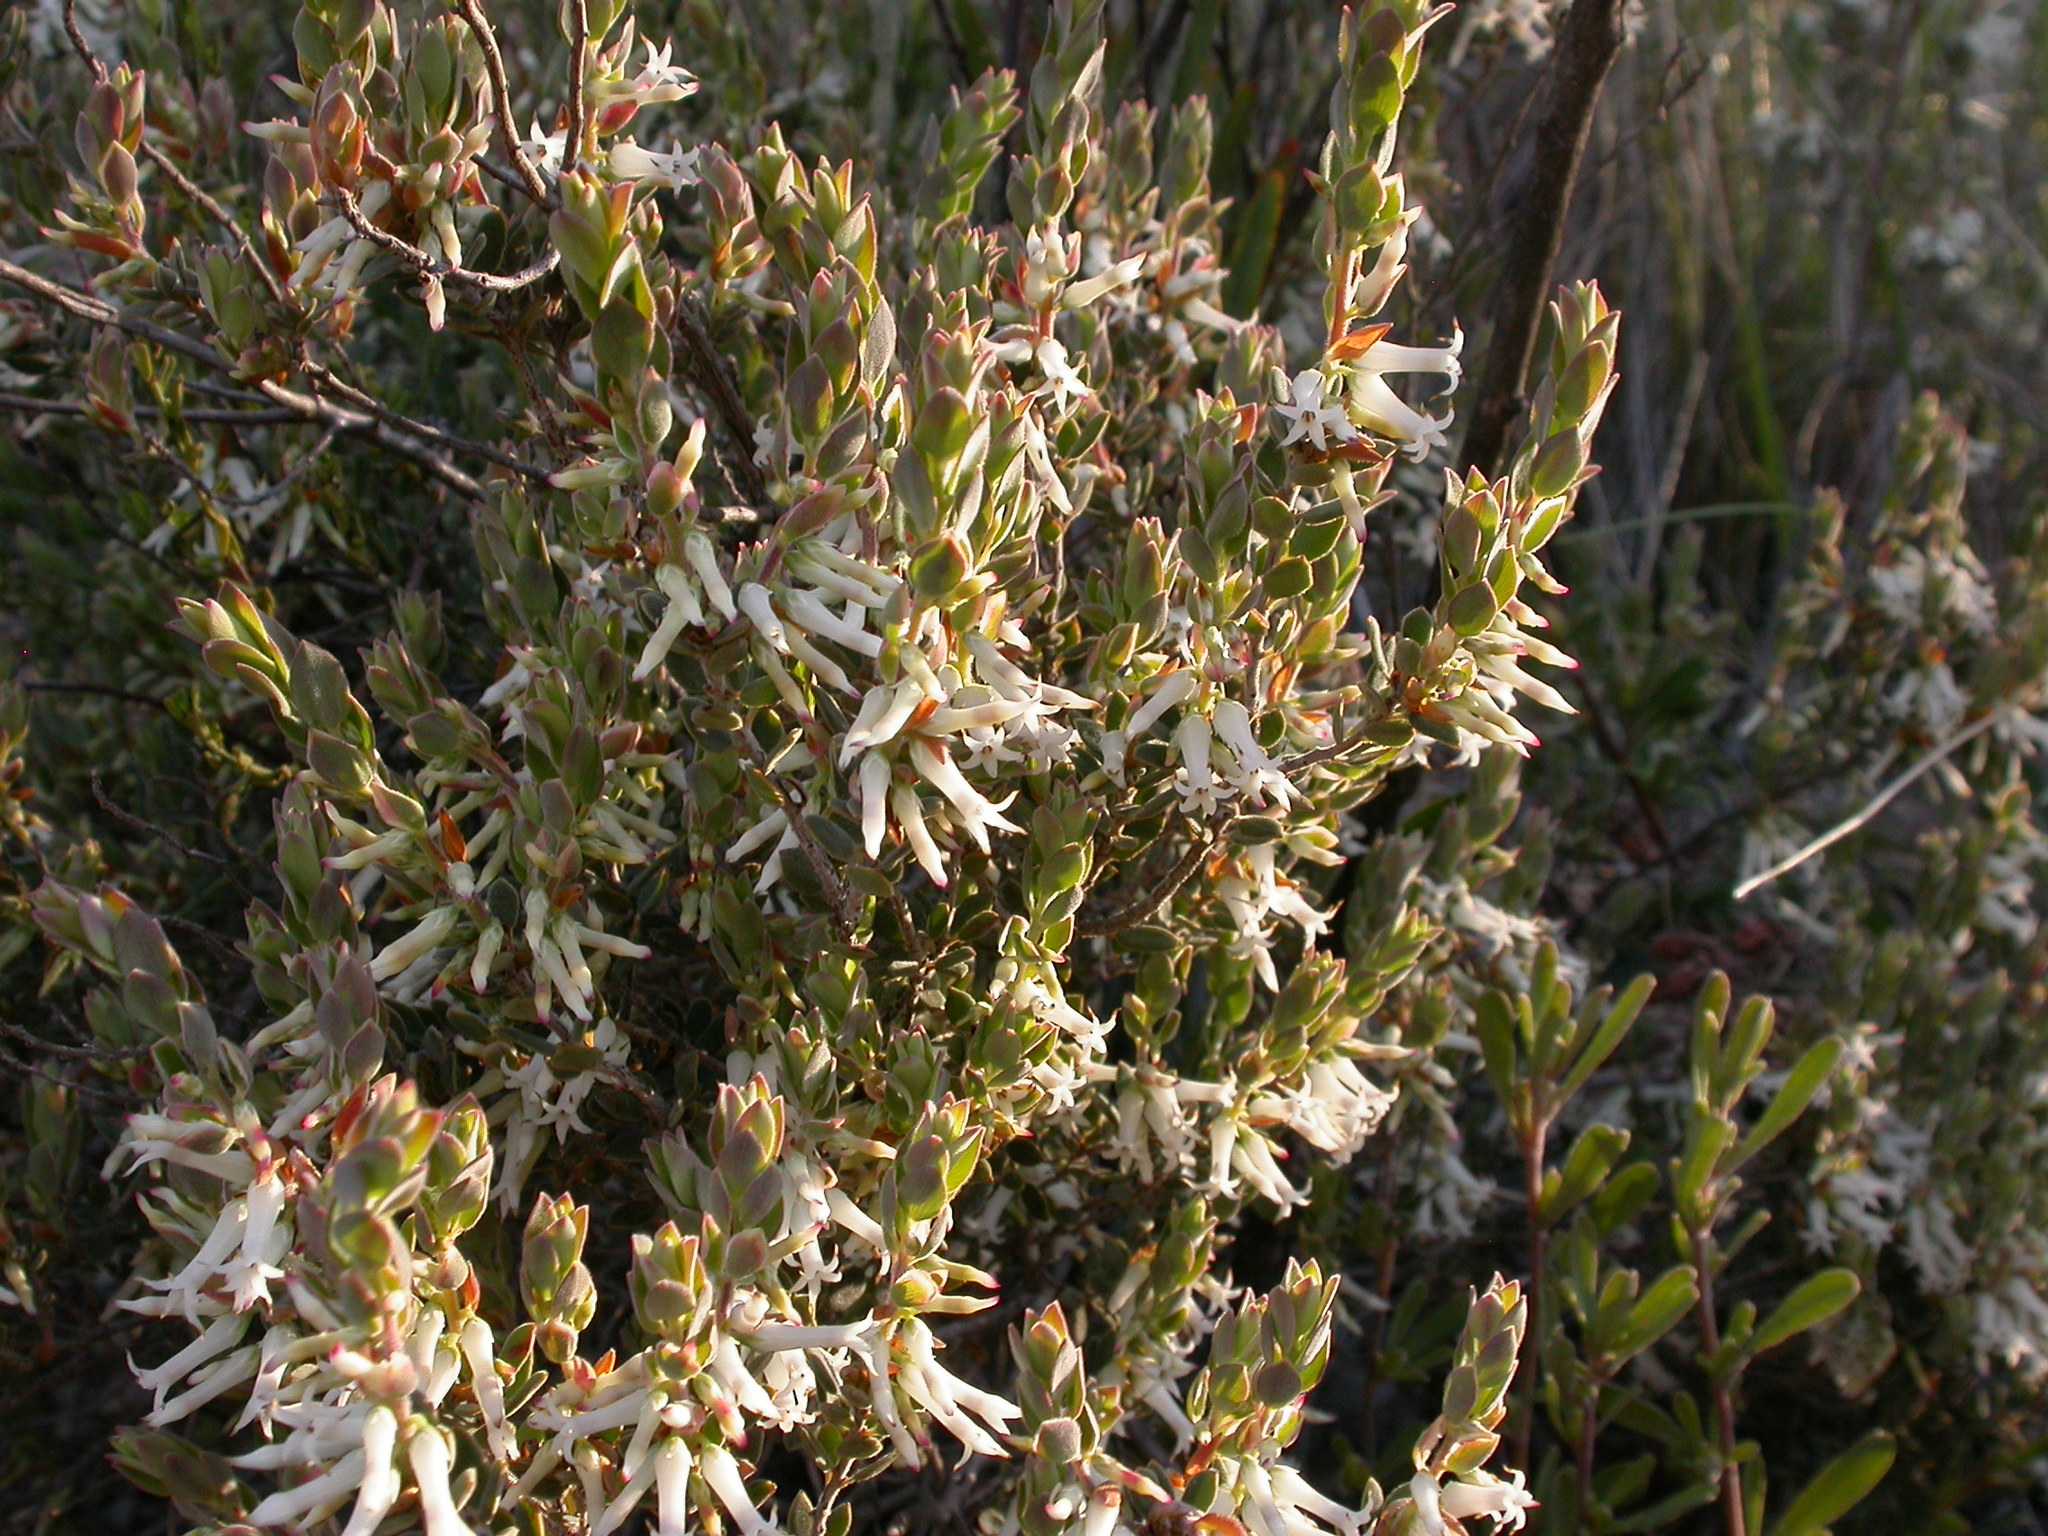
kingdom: Plantae
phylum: Tracheophyta
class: Magnoliopsida
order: Ericales
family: Ericaceae
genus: Brachyloma
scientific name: Brachyloma daphnoides
